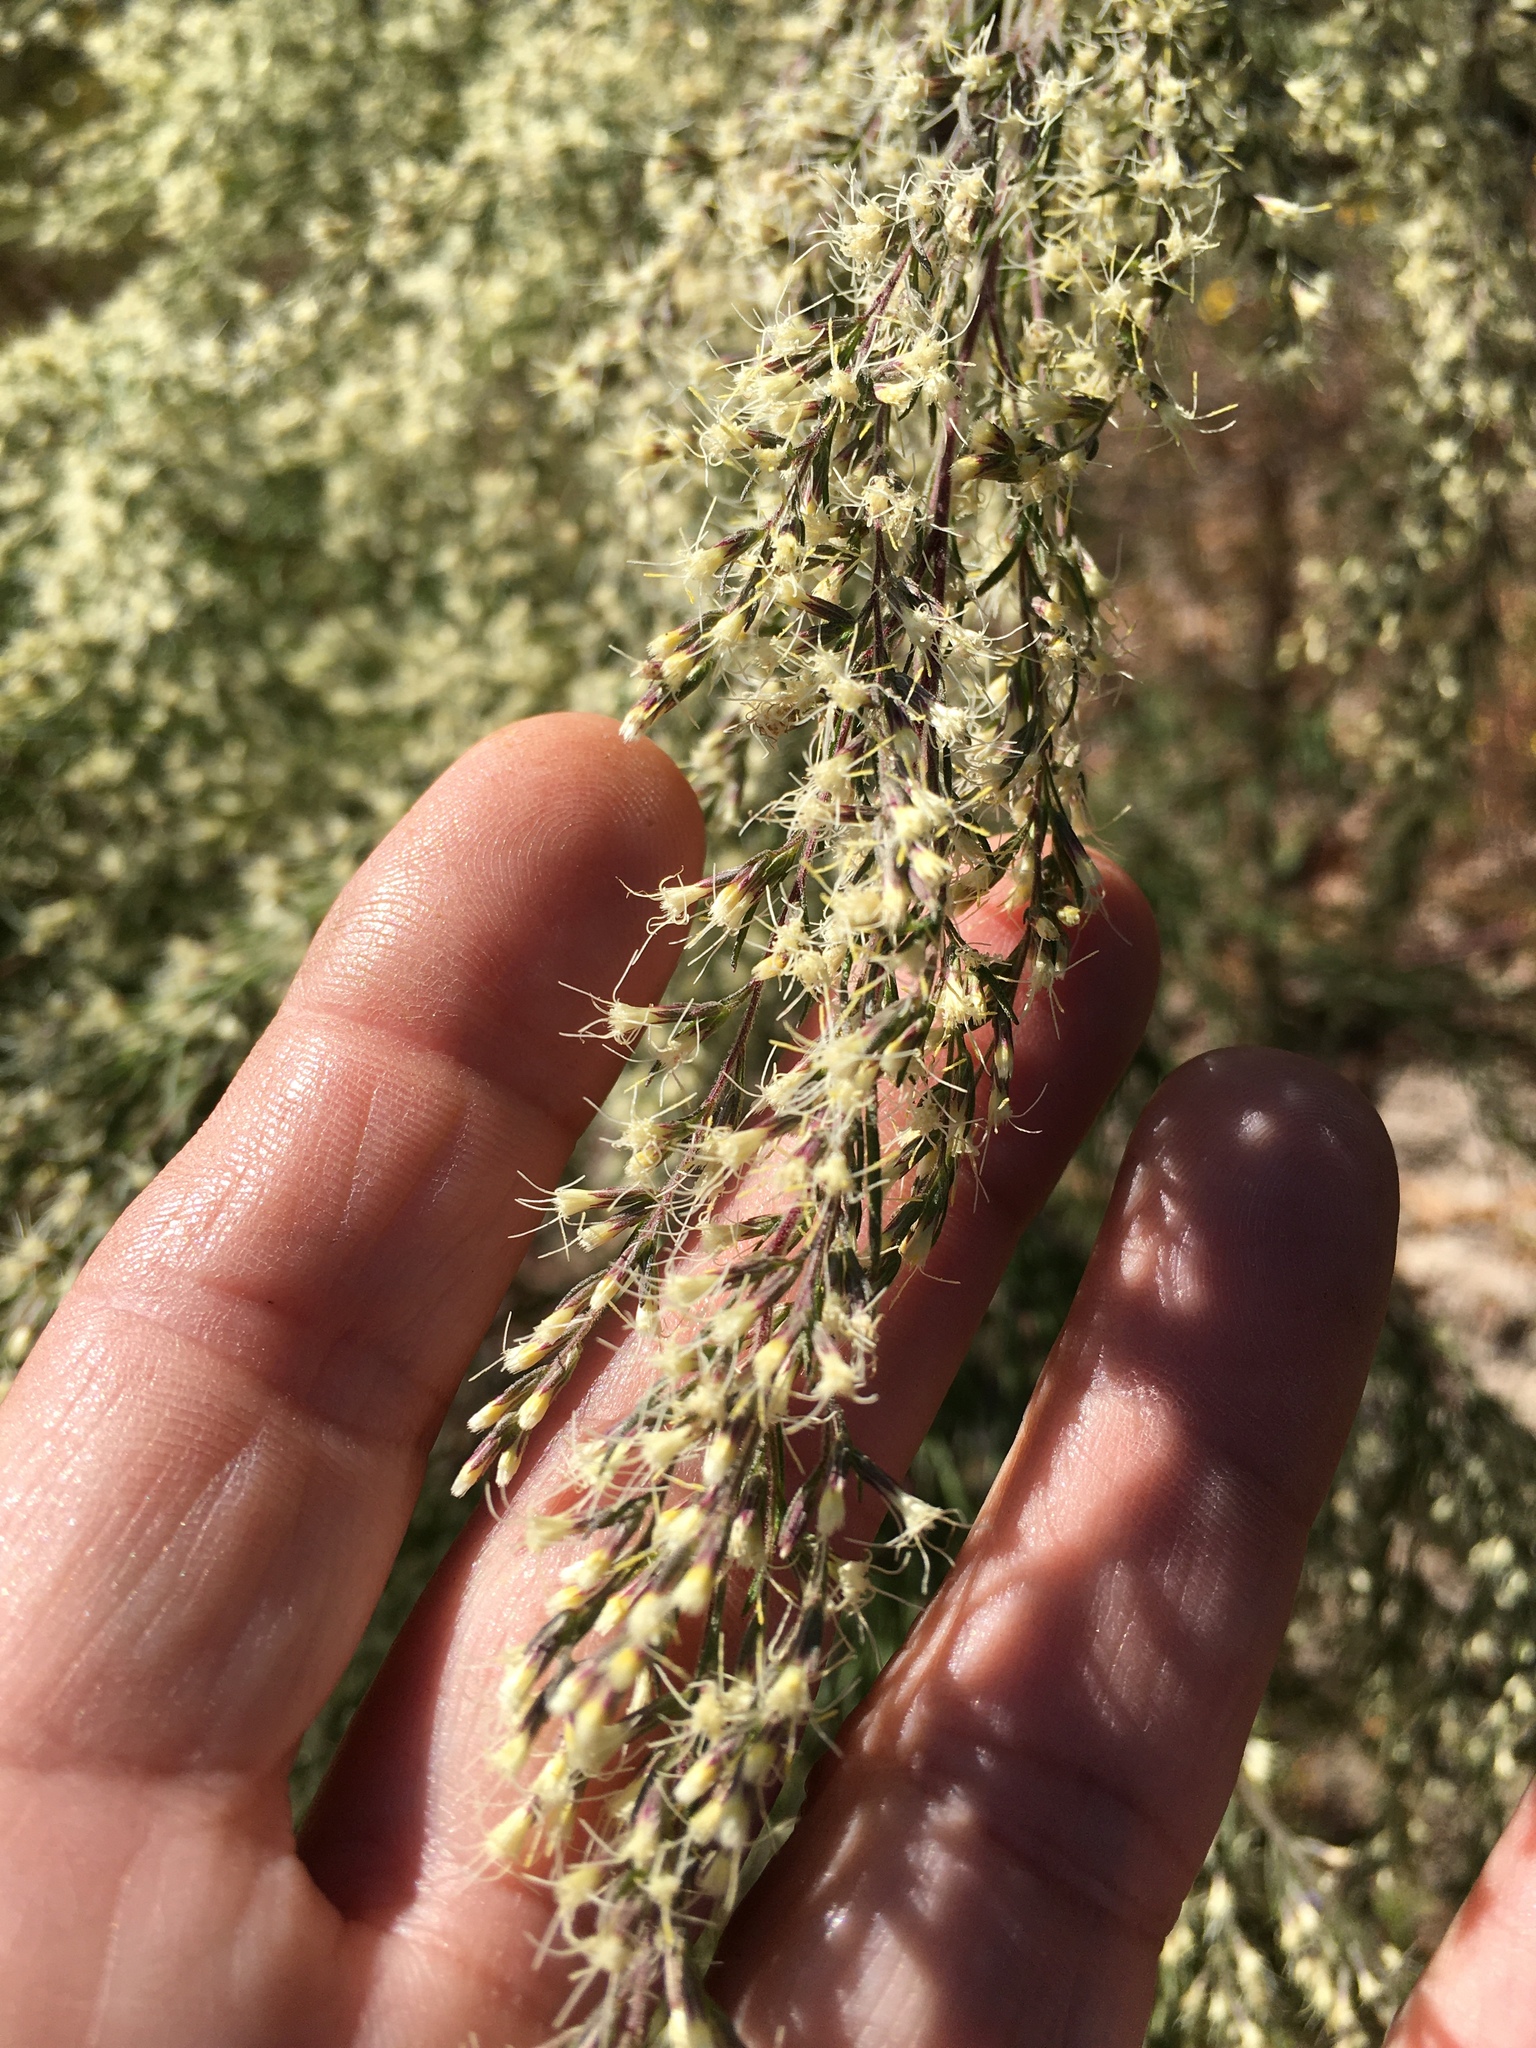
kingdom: Plantae
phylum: Tracheophyta
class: Magnoliopsida
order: Asterales
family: Asteraceae
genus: Eupatorium
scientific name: Eupatorium compositifolium
